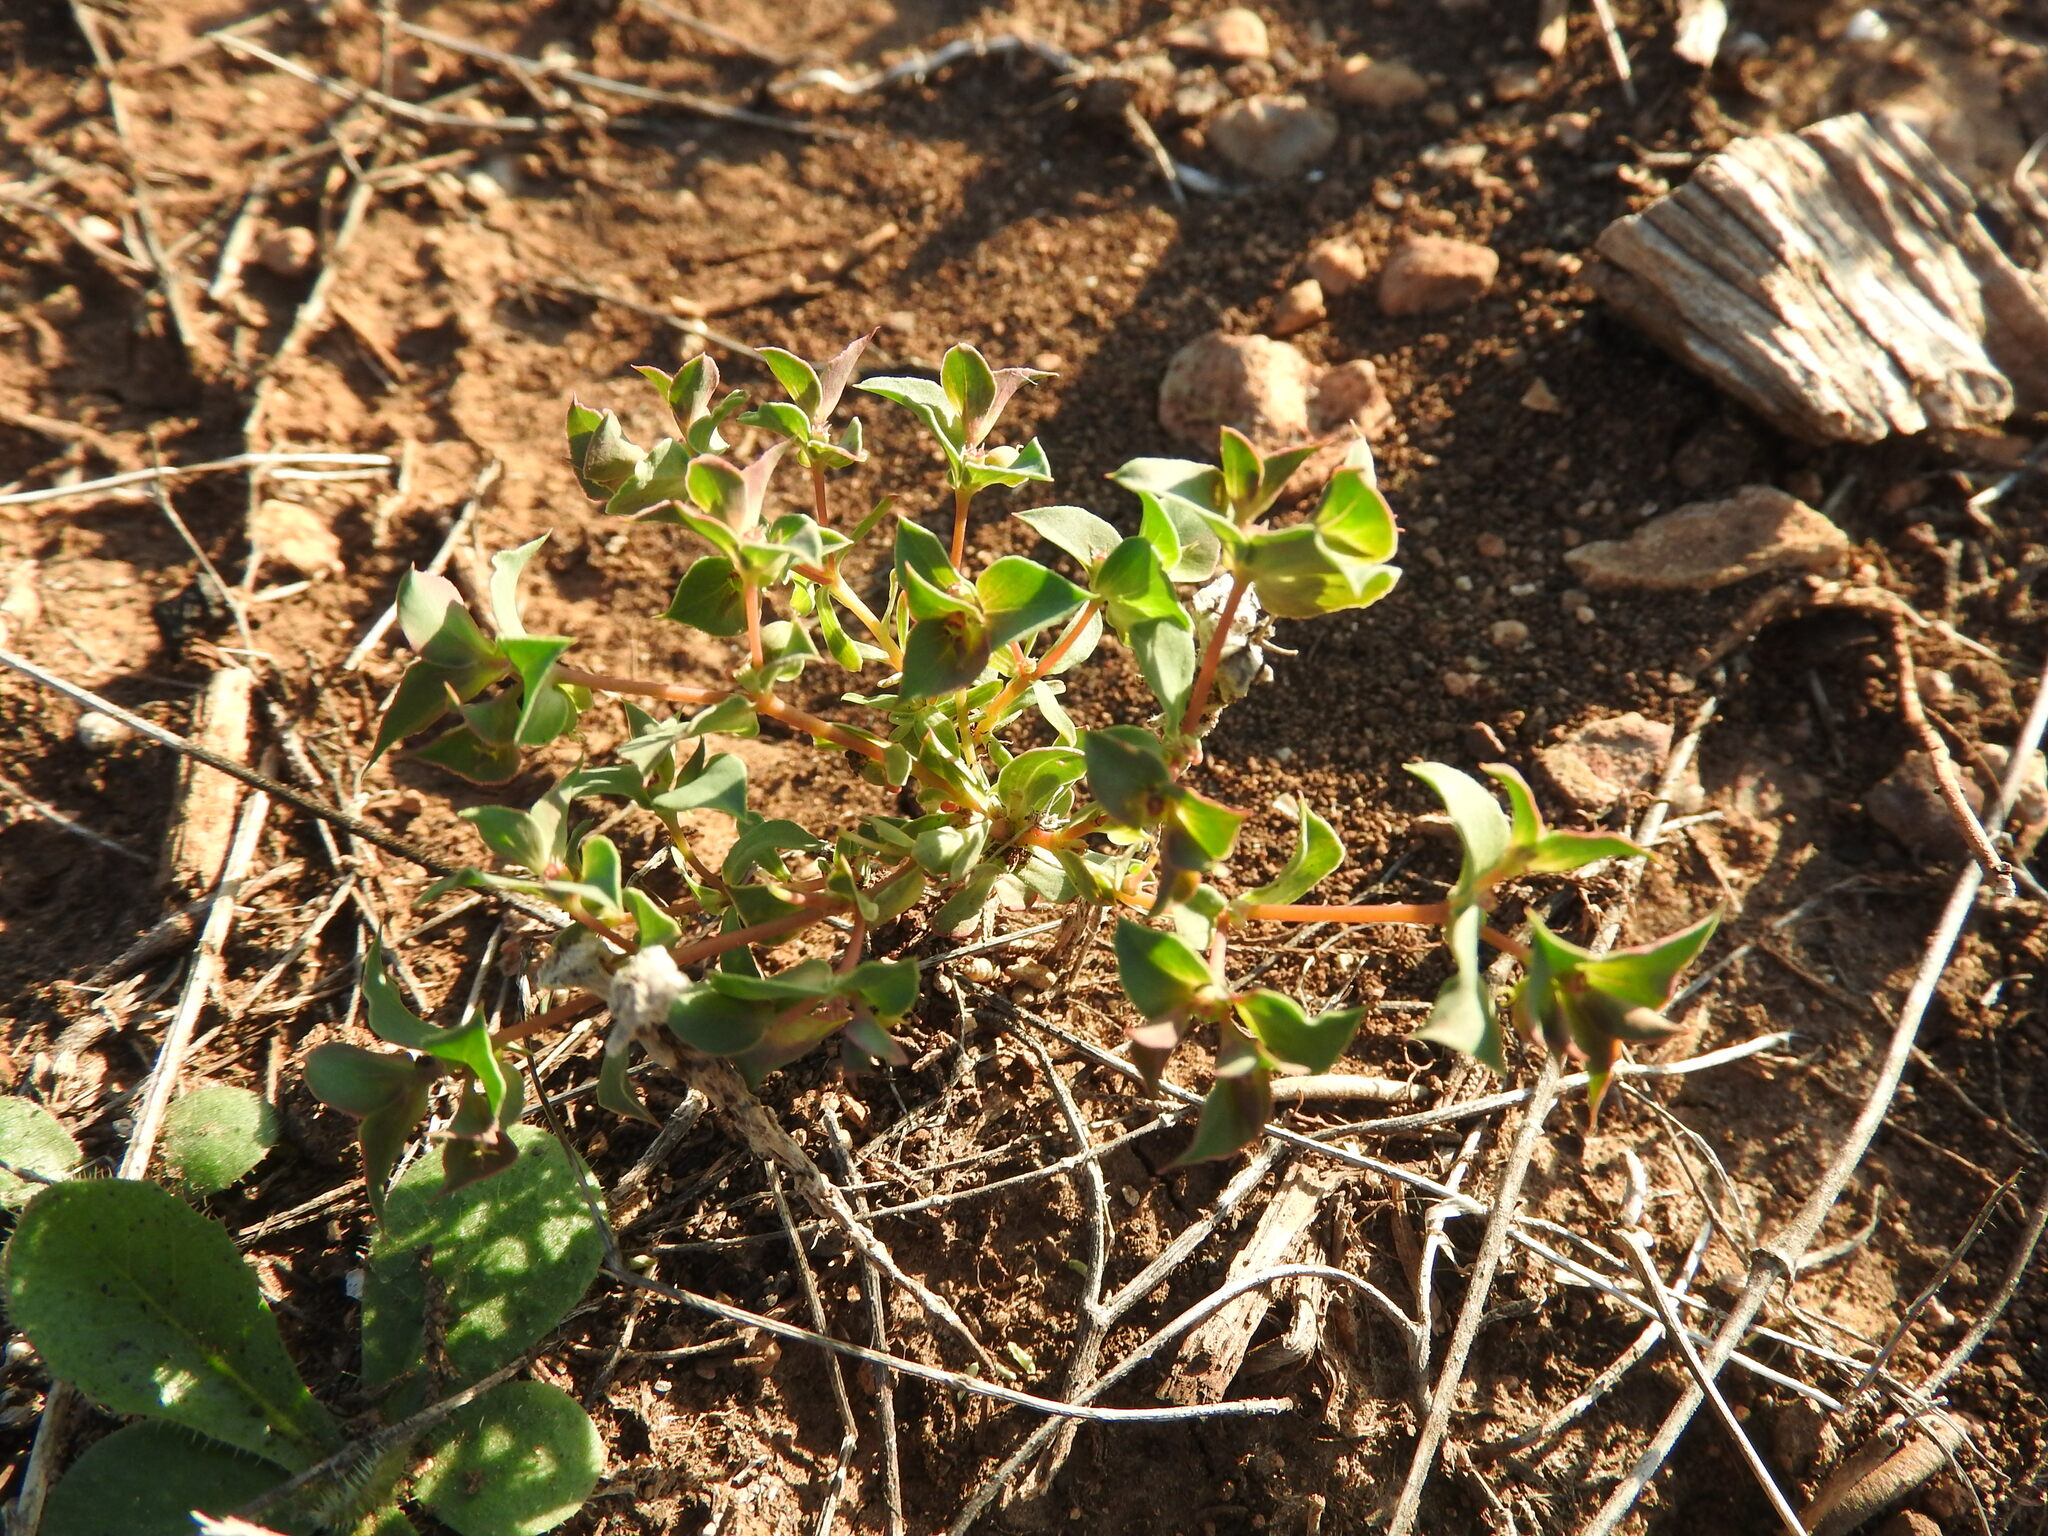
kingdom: Plantae
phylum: Tracheophyta
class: Magnoliopsida
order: Malpighiales
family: Euphorbiaceae
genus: Euphorbia
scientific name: Euphorbia falcata
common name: Sickle spurge
